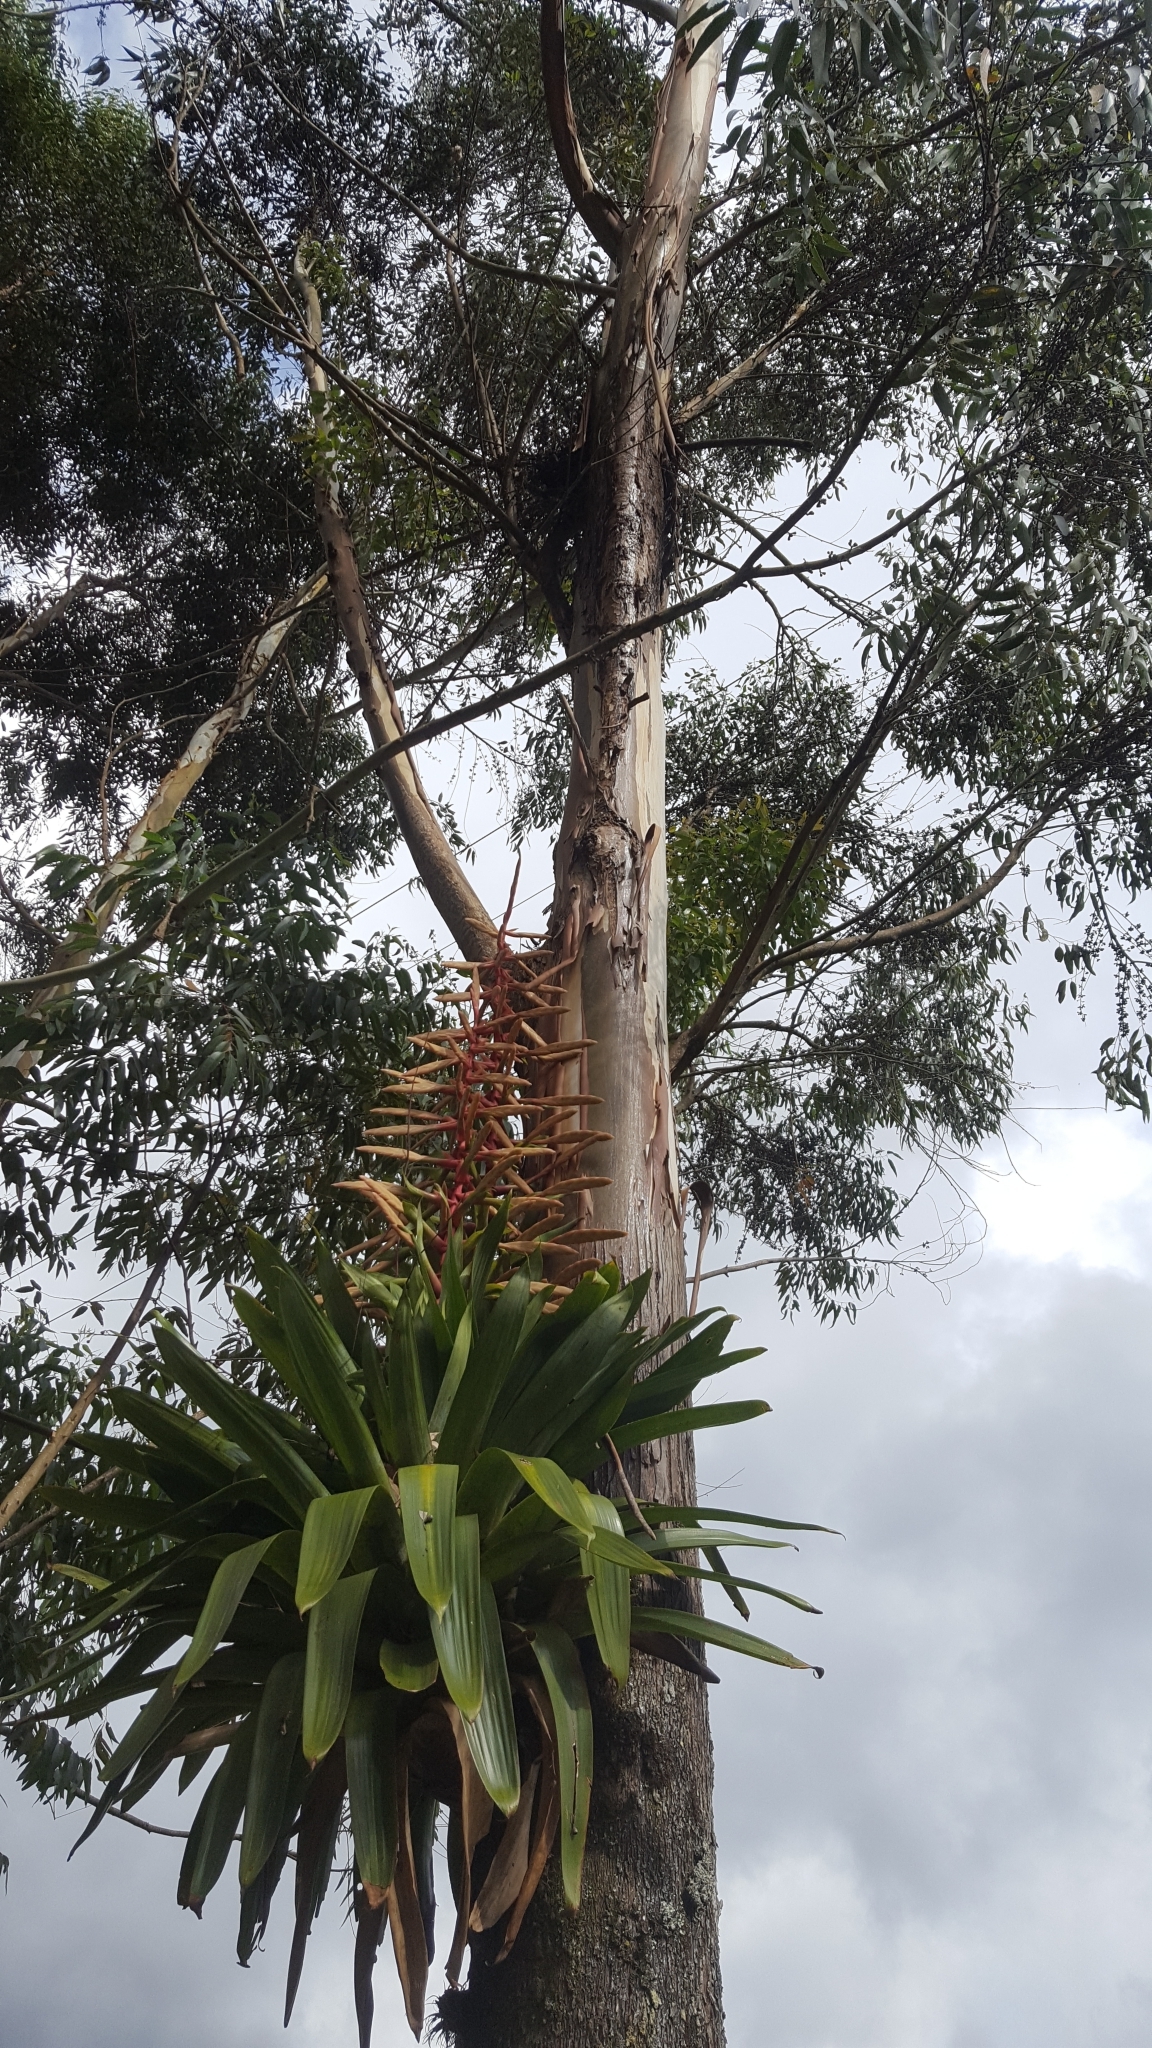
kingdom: Plantae
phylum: Tracheophyta
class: Liliopsida
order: Poales
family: Bromeliaceae
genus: Tillandsia
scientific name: Tillandsia fendleri
